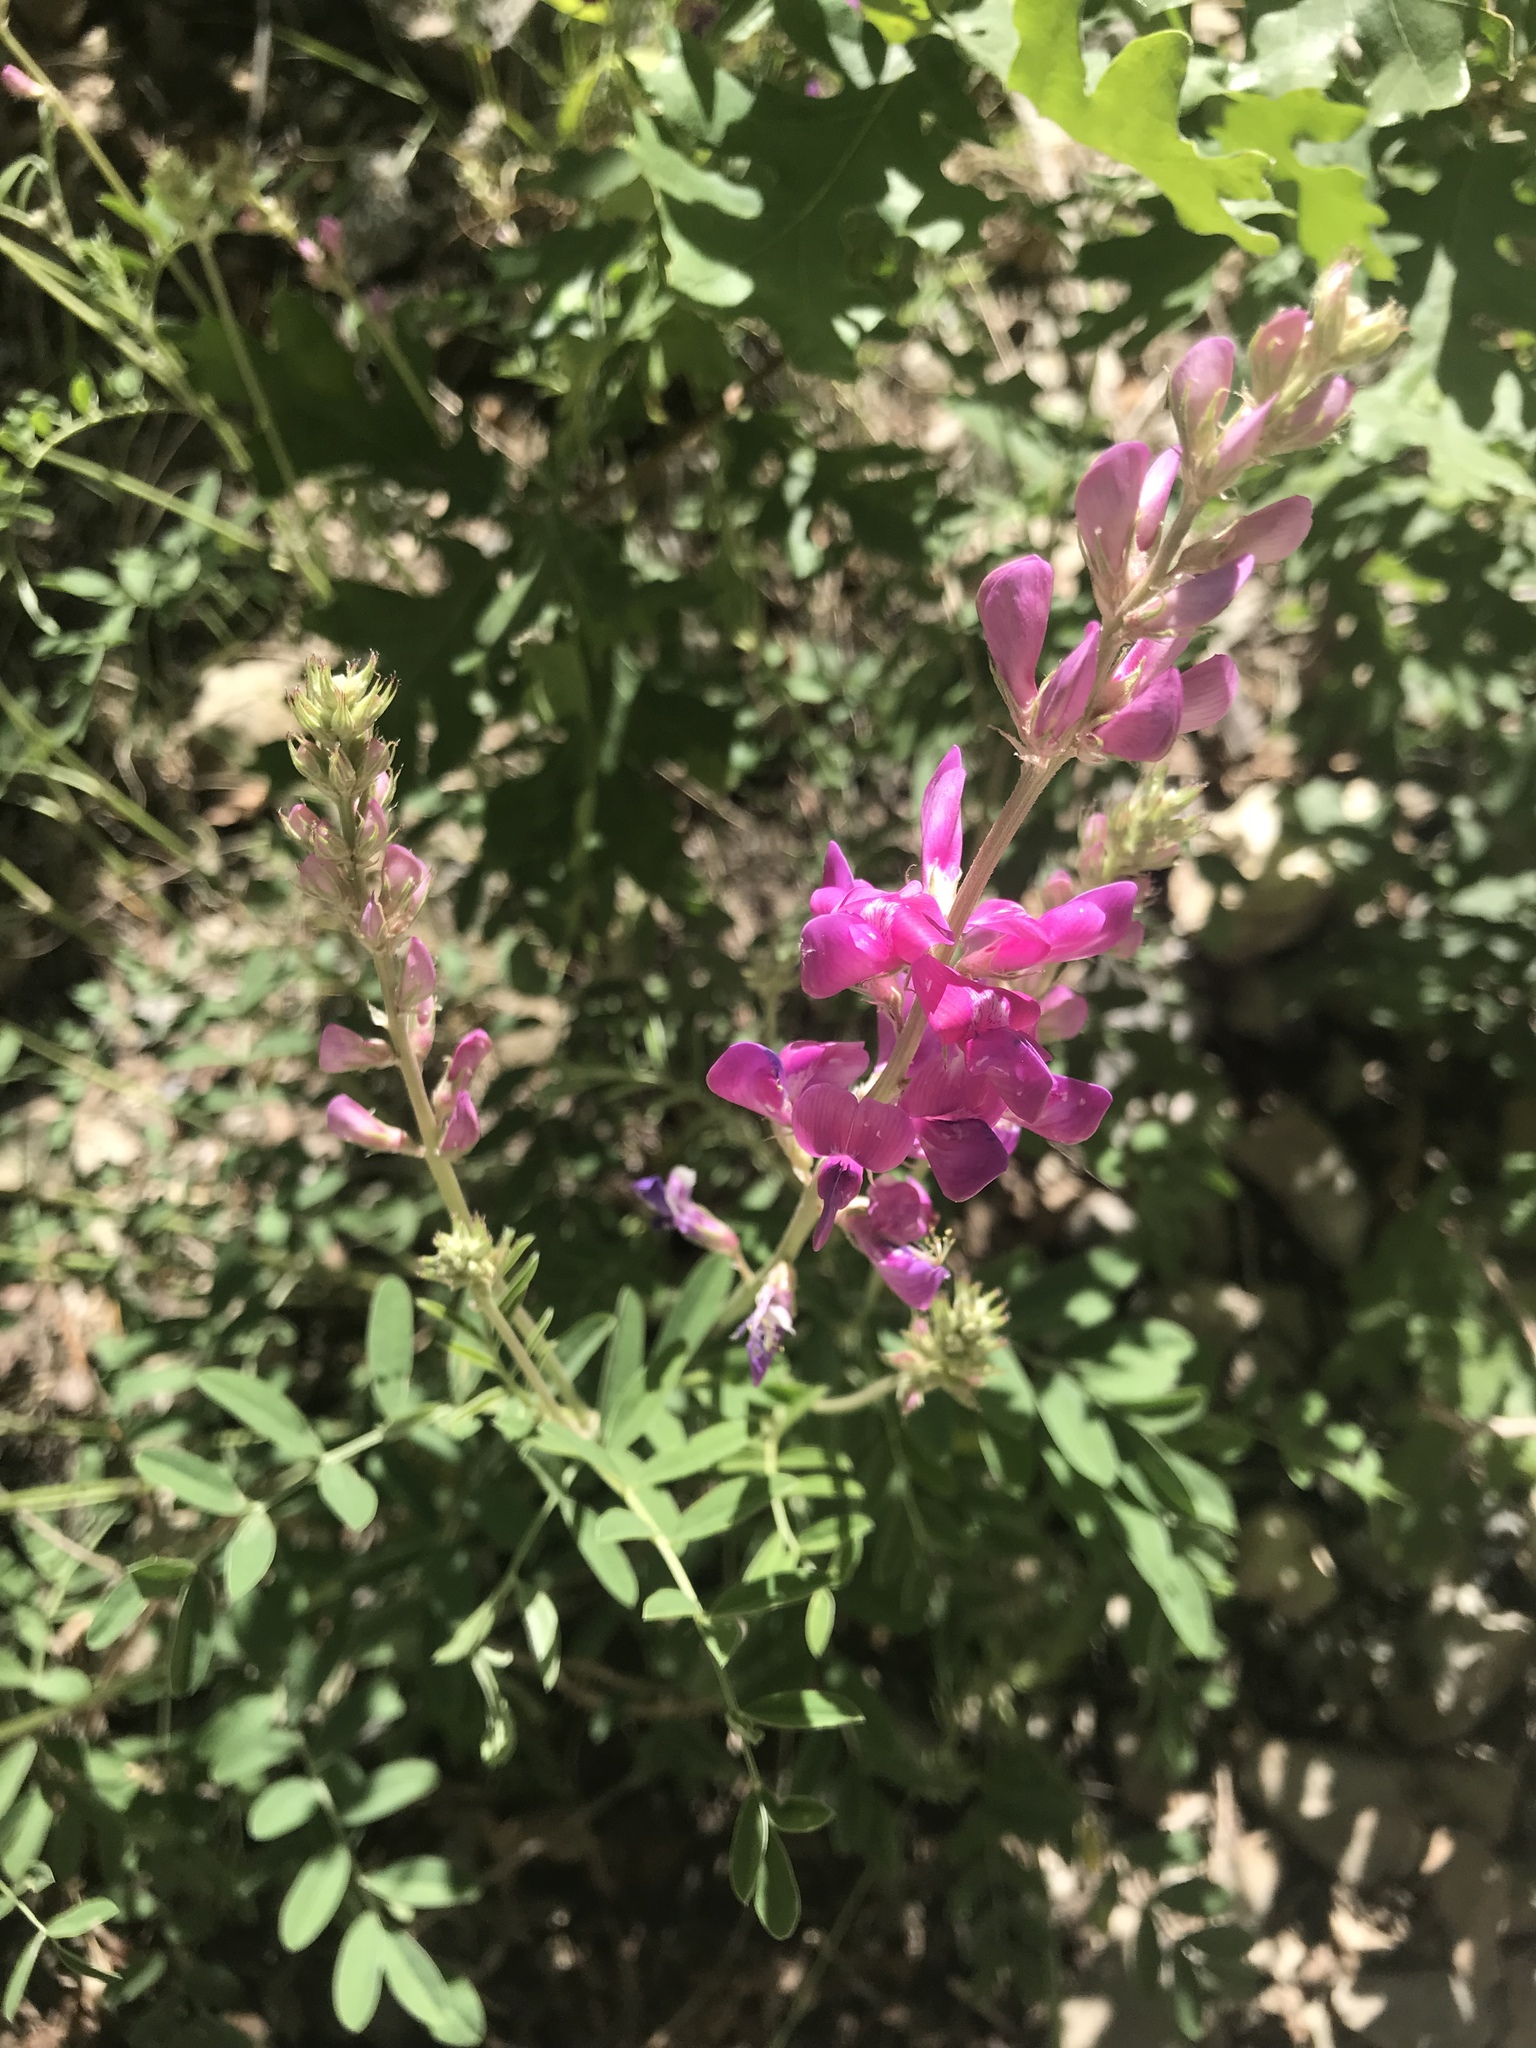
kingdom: Plantae
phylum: Tracheophyta
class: Magnoliopsida
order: Fabales
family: Fabaceae
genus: Hedysarum
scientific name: Hedysarum boreale
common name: Northern sweet-vetch
